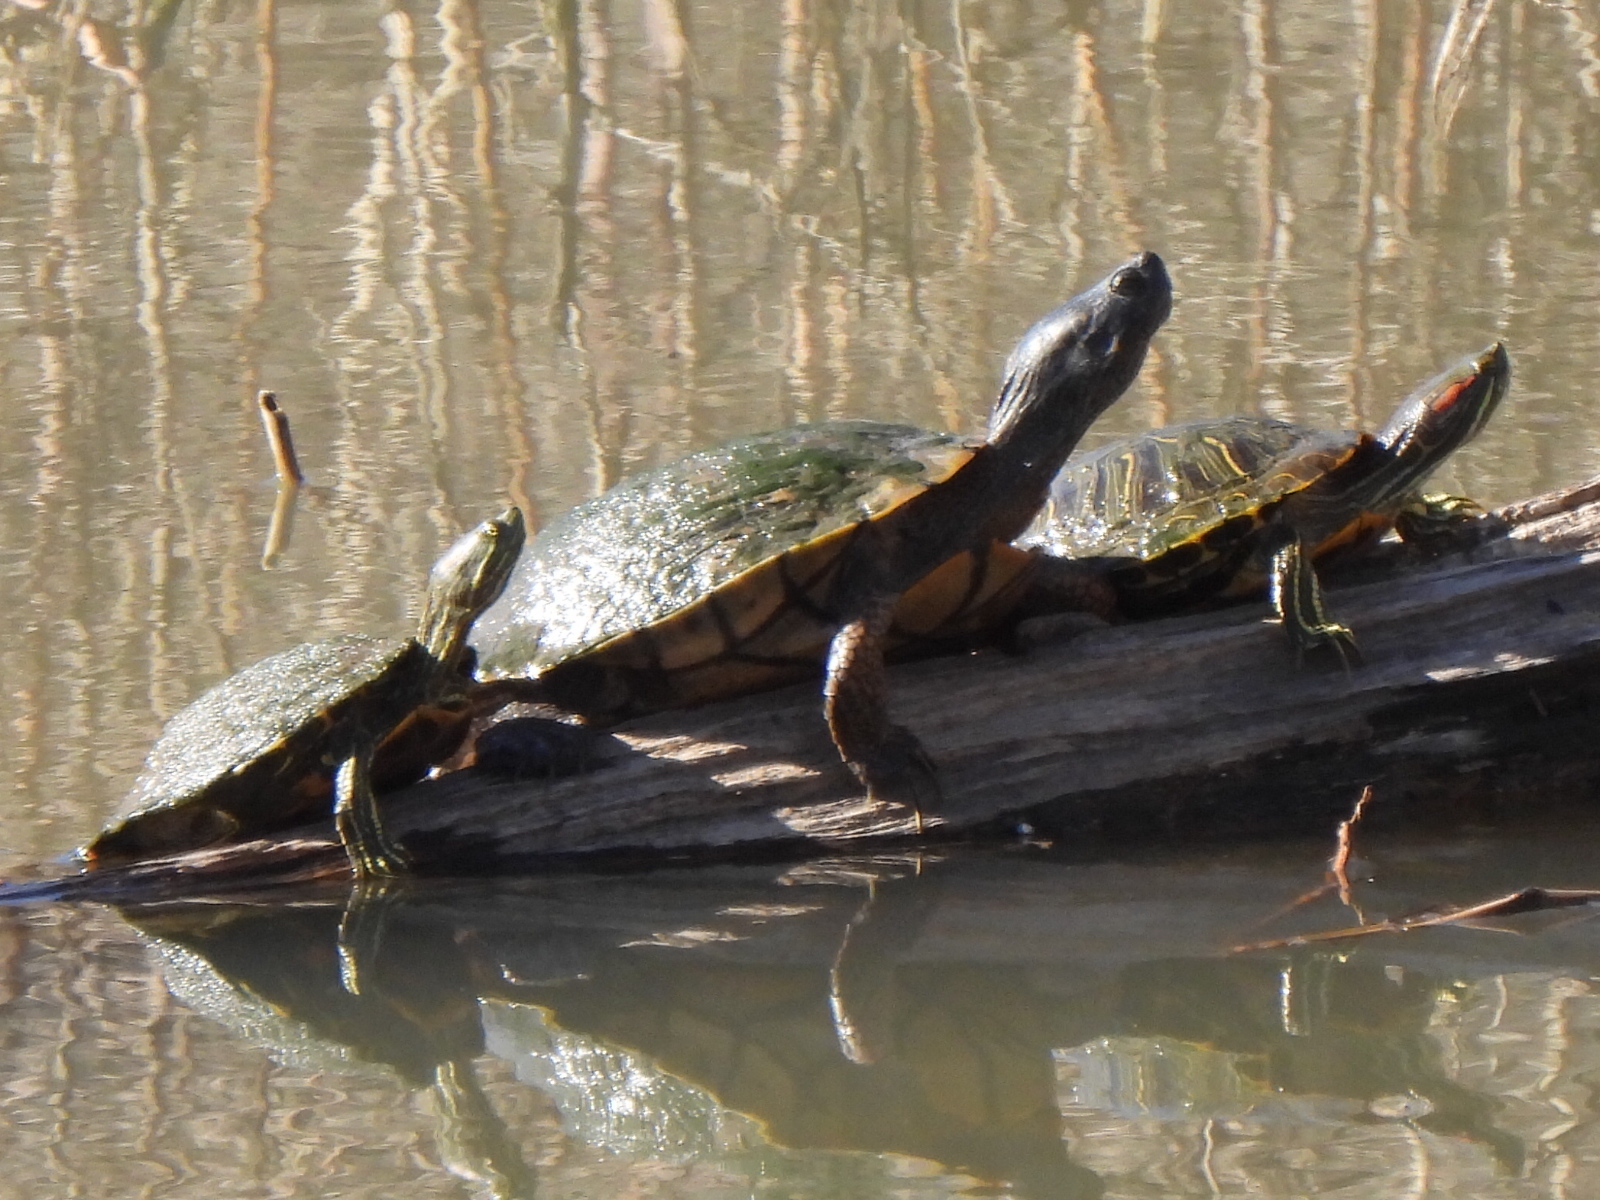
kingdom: Animalia
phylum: Chordata
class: Testudines
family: Emydidae
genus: Trachemys
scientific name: Trachemys scripta
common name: Slider
